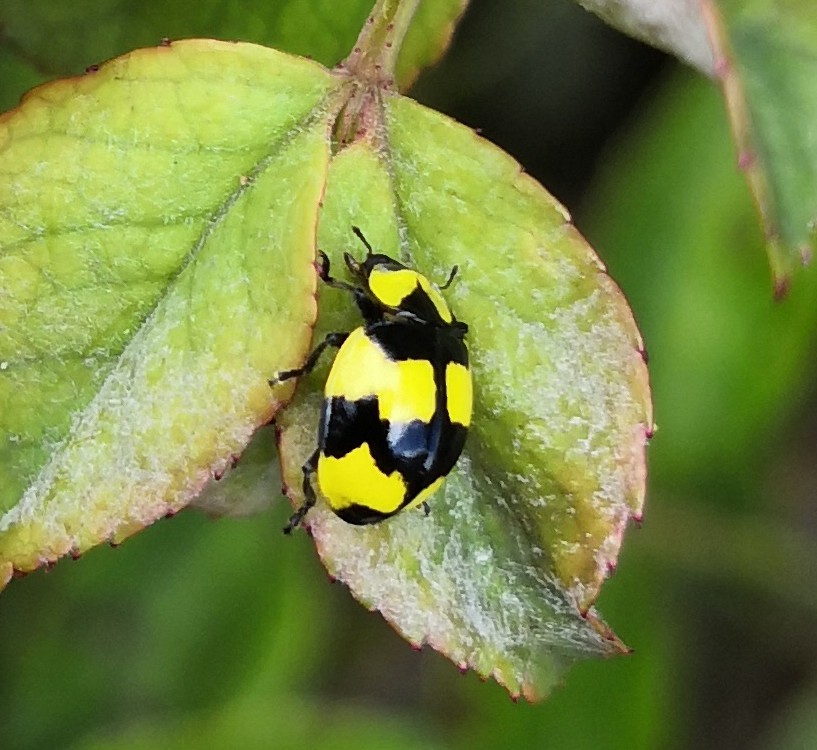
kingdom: Animalia
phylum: Arthropoda
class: Insecta
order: Coleoptera
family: Coccinellidae
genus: Illeis
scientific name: Illeis galbula
